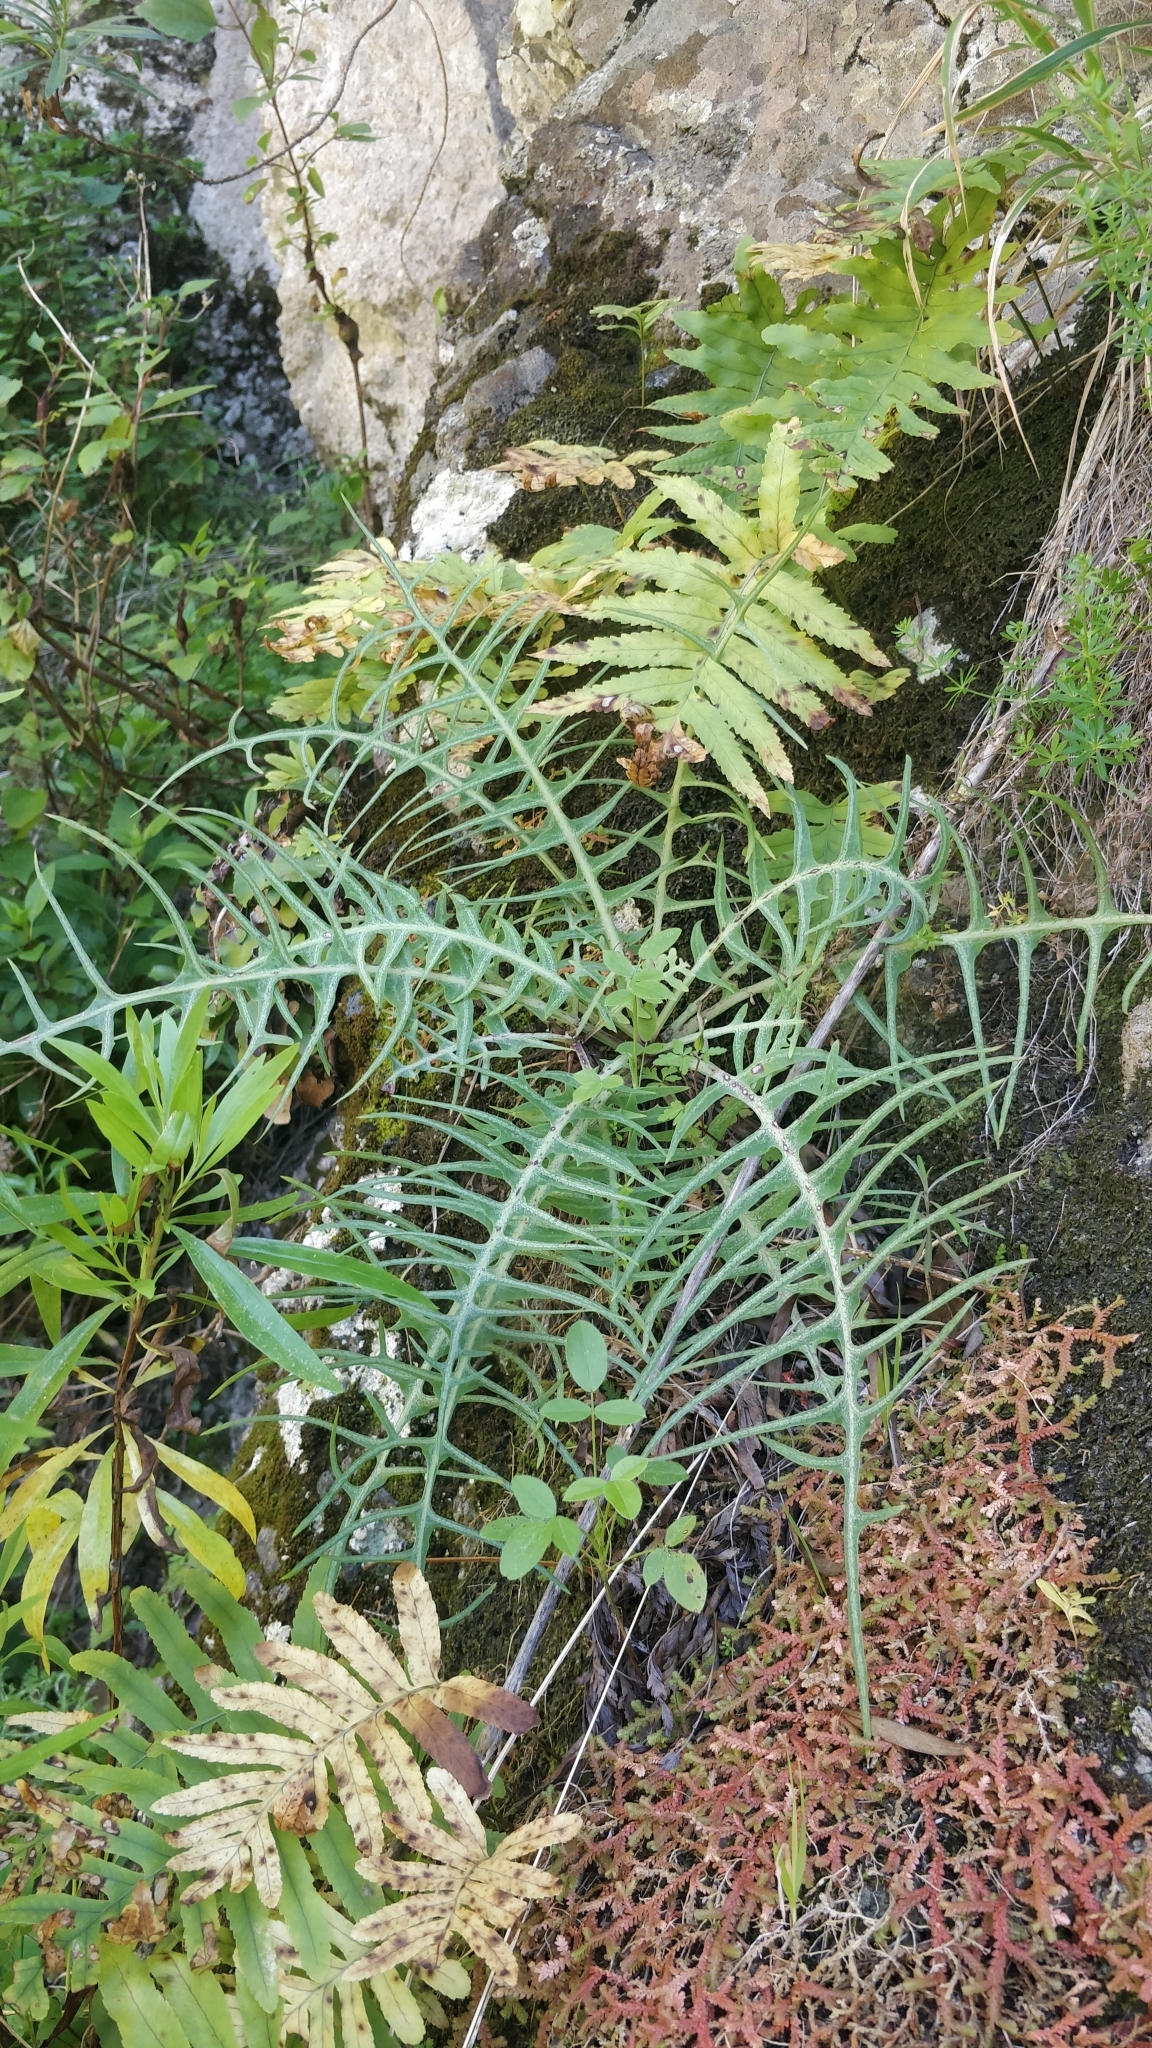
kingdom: Plantae
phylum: Tracheophyta
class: Magnoliopsida
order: Asterales
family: Asteraceae
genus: Sonchus
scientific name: Sonchus ustulatus
